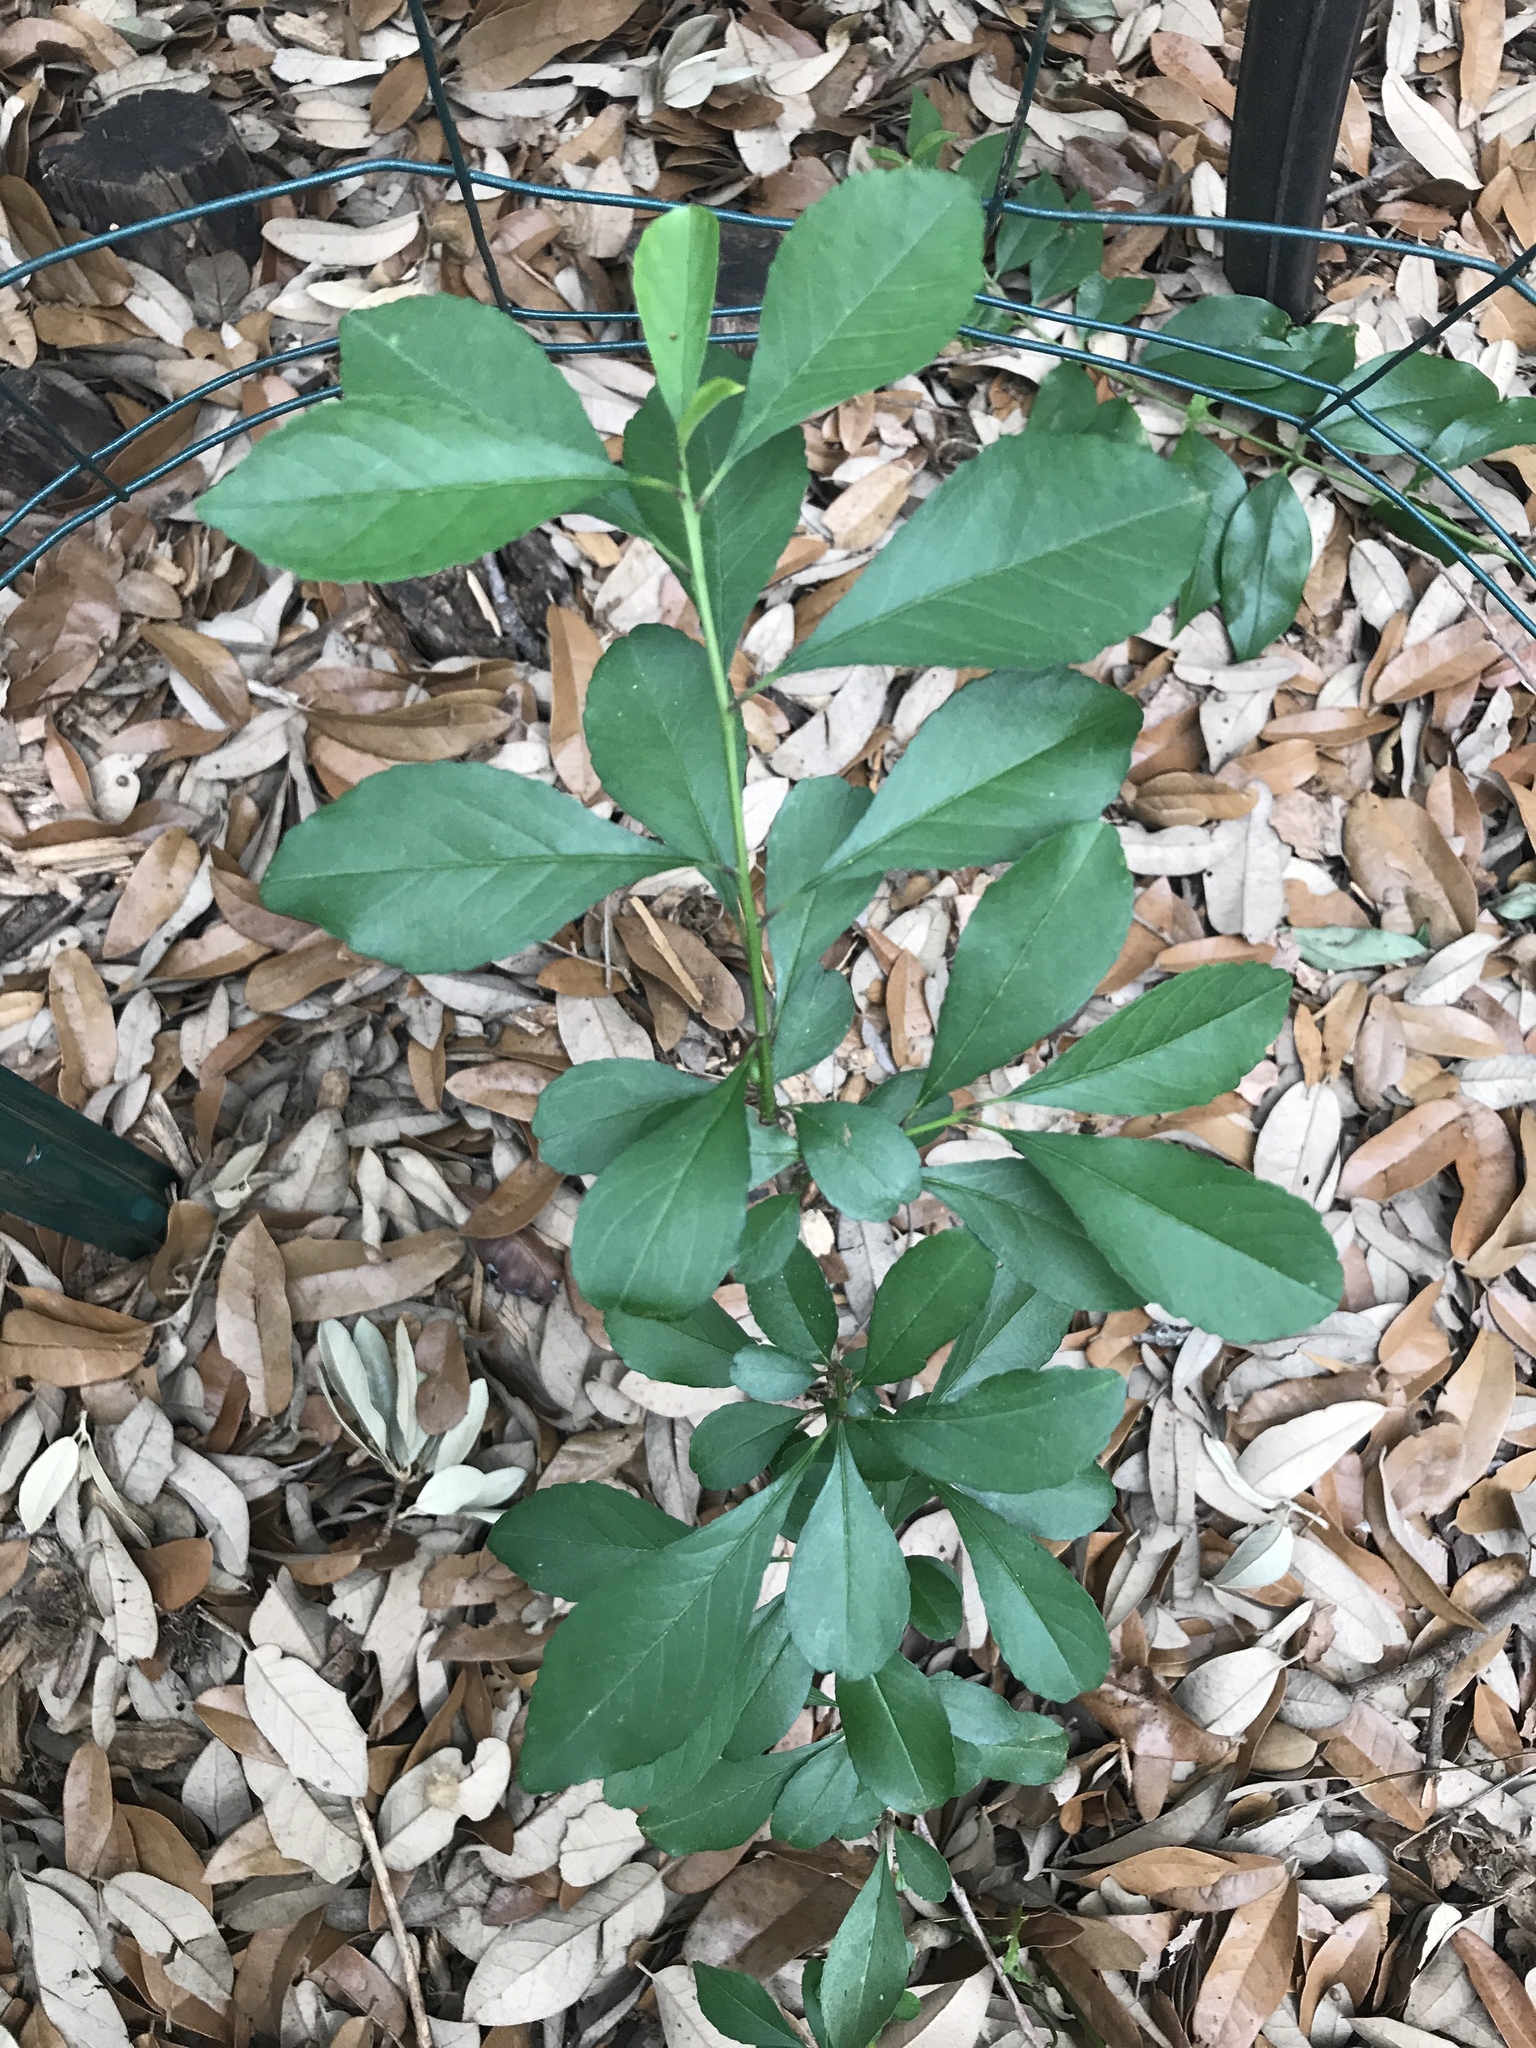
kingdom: Plantae
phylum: Tracheophyta
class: Magnoliopsida
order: Aquifoliales
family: Aquifoliaceae
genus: Ilex
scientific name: Ilex decidua
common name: Possum-haw
